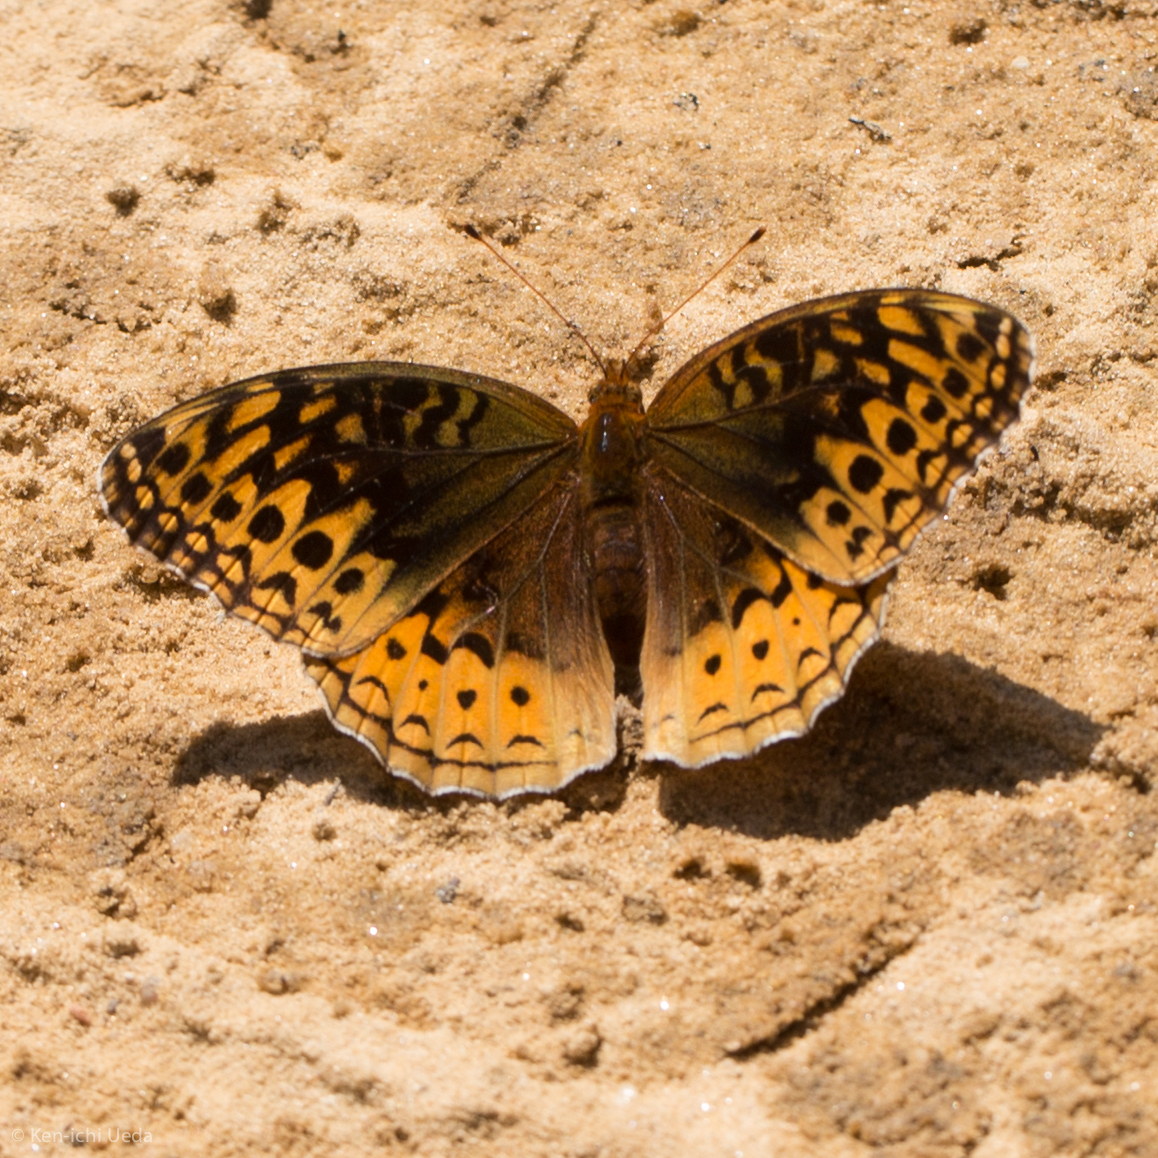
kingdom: Animalia
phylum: Arthropoda
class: Insecta
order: Lepidoptera
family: Nymphalidae
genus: Speyeria
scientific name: Speyeria cybele
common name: Great spangled fritillary
